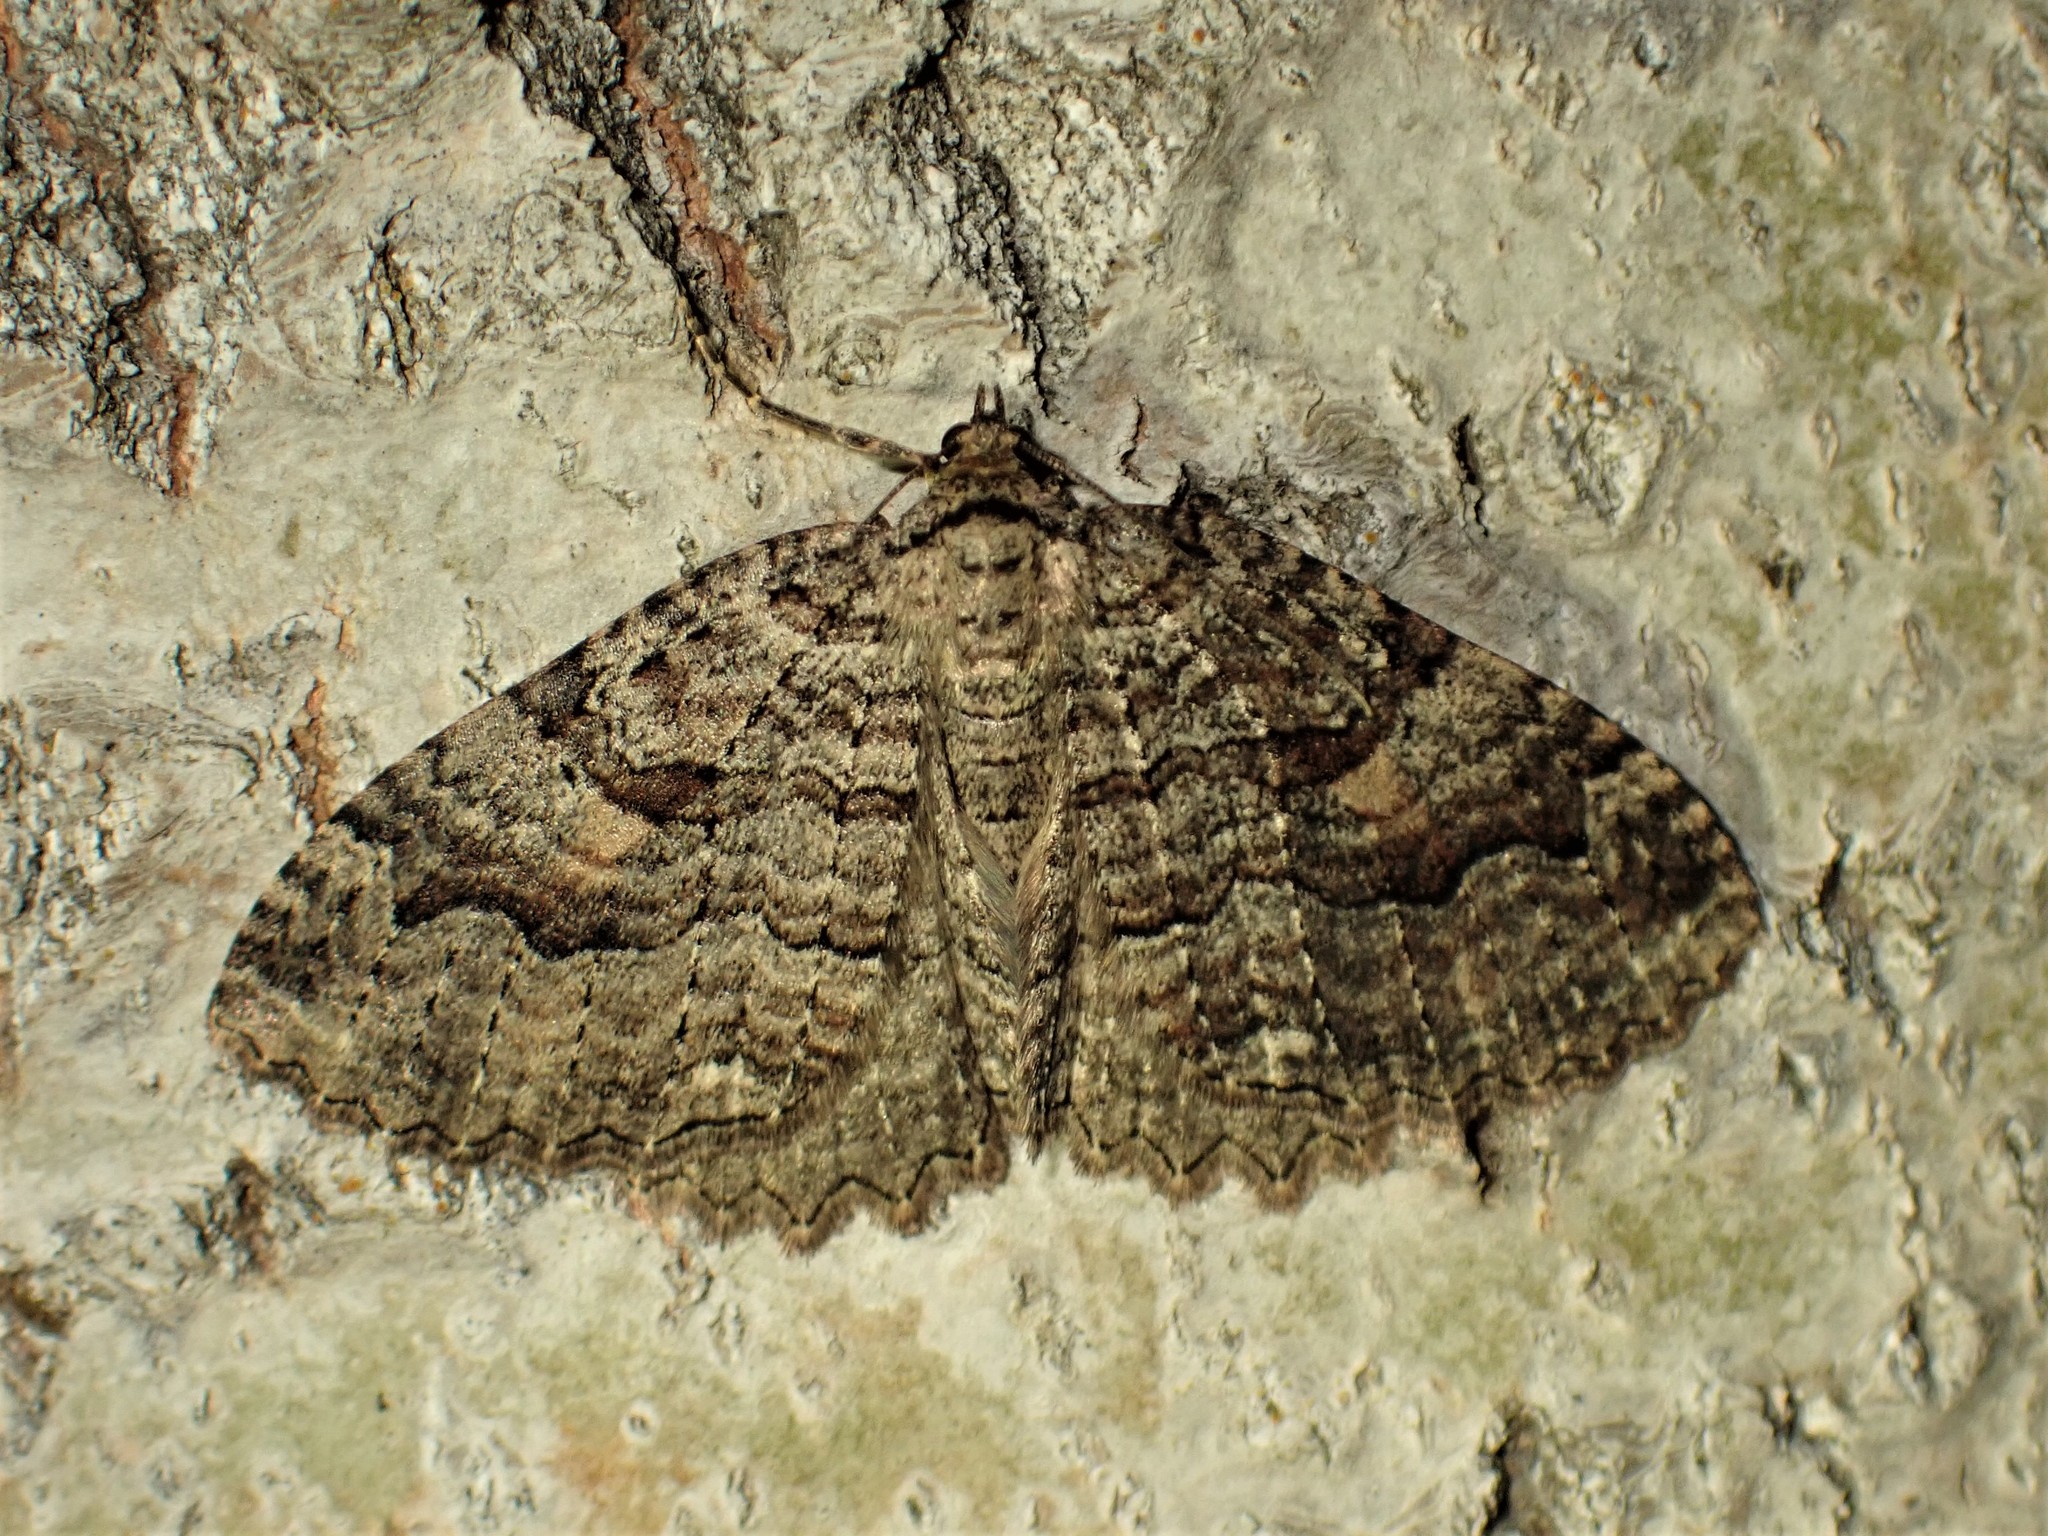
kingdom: Animalia
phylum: Arthropoda
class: Insecta
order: Lepidoptera
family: Geometridae
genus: Triphosa
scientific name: Triphosa haesitata
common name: Tissue moth
